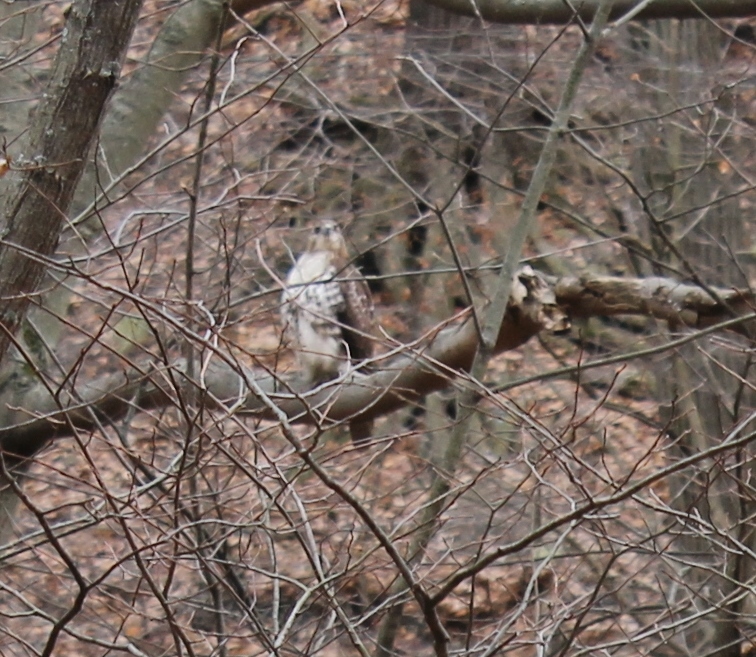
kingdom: Animalia
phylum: Chordata
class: Aves
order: Accipitriformes
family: Accipitridae
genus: Buteo
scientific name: Buteo jamaicensis
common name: Red-tailed hawk
